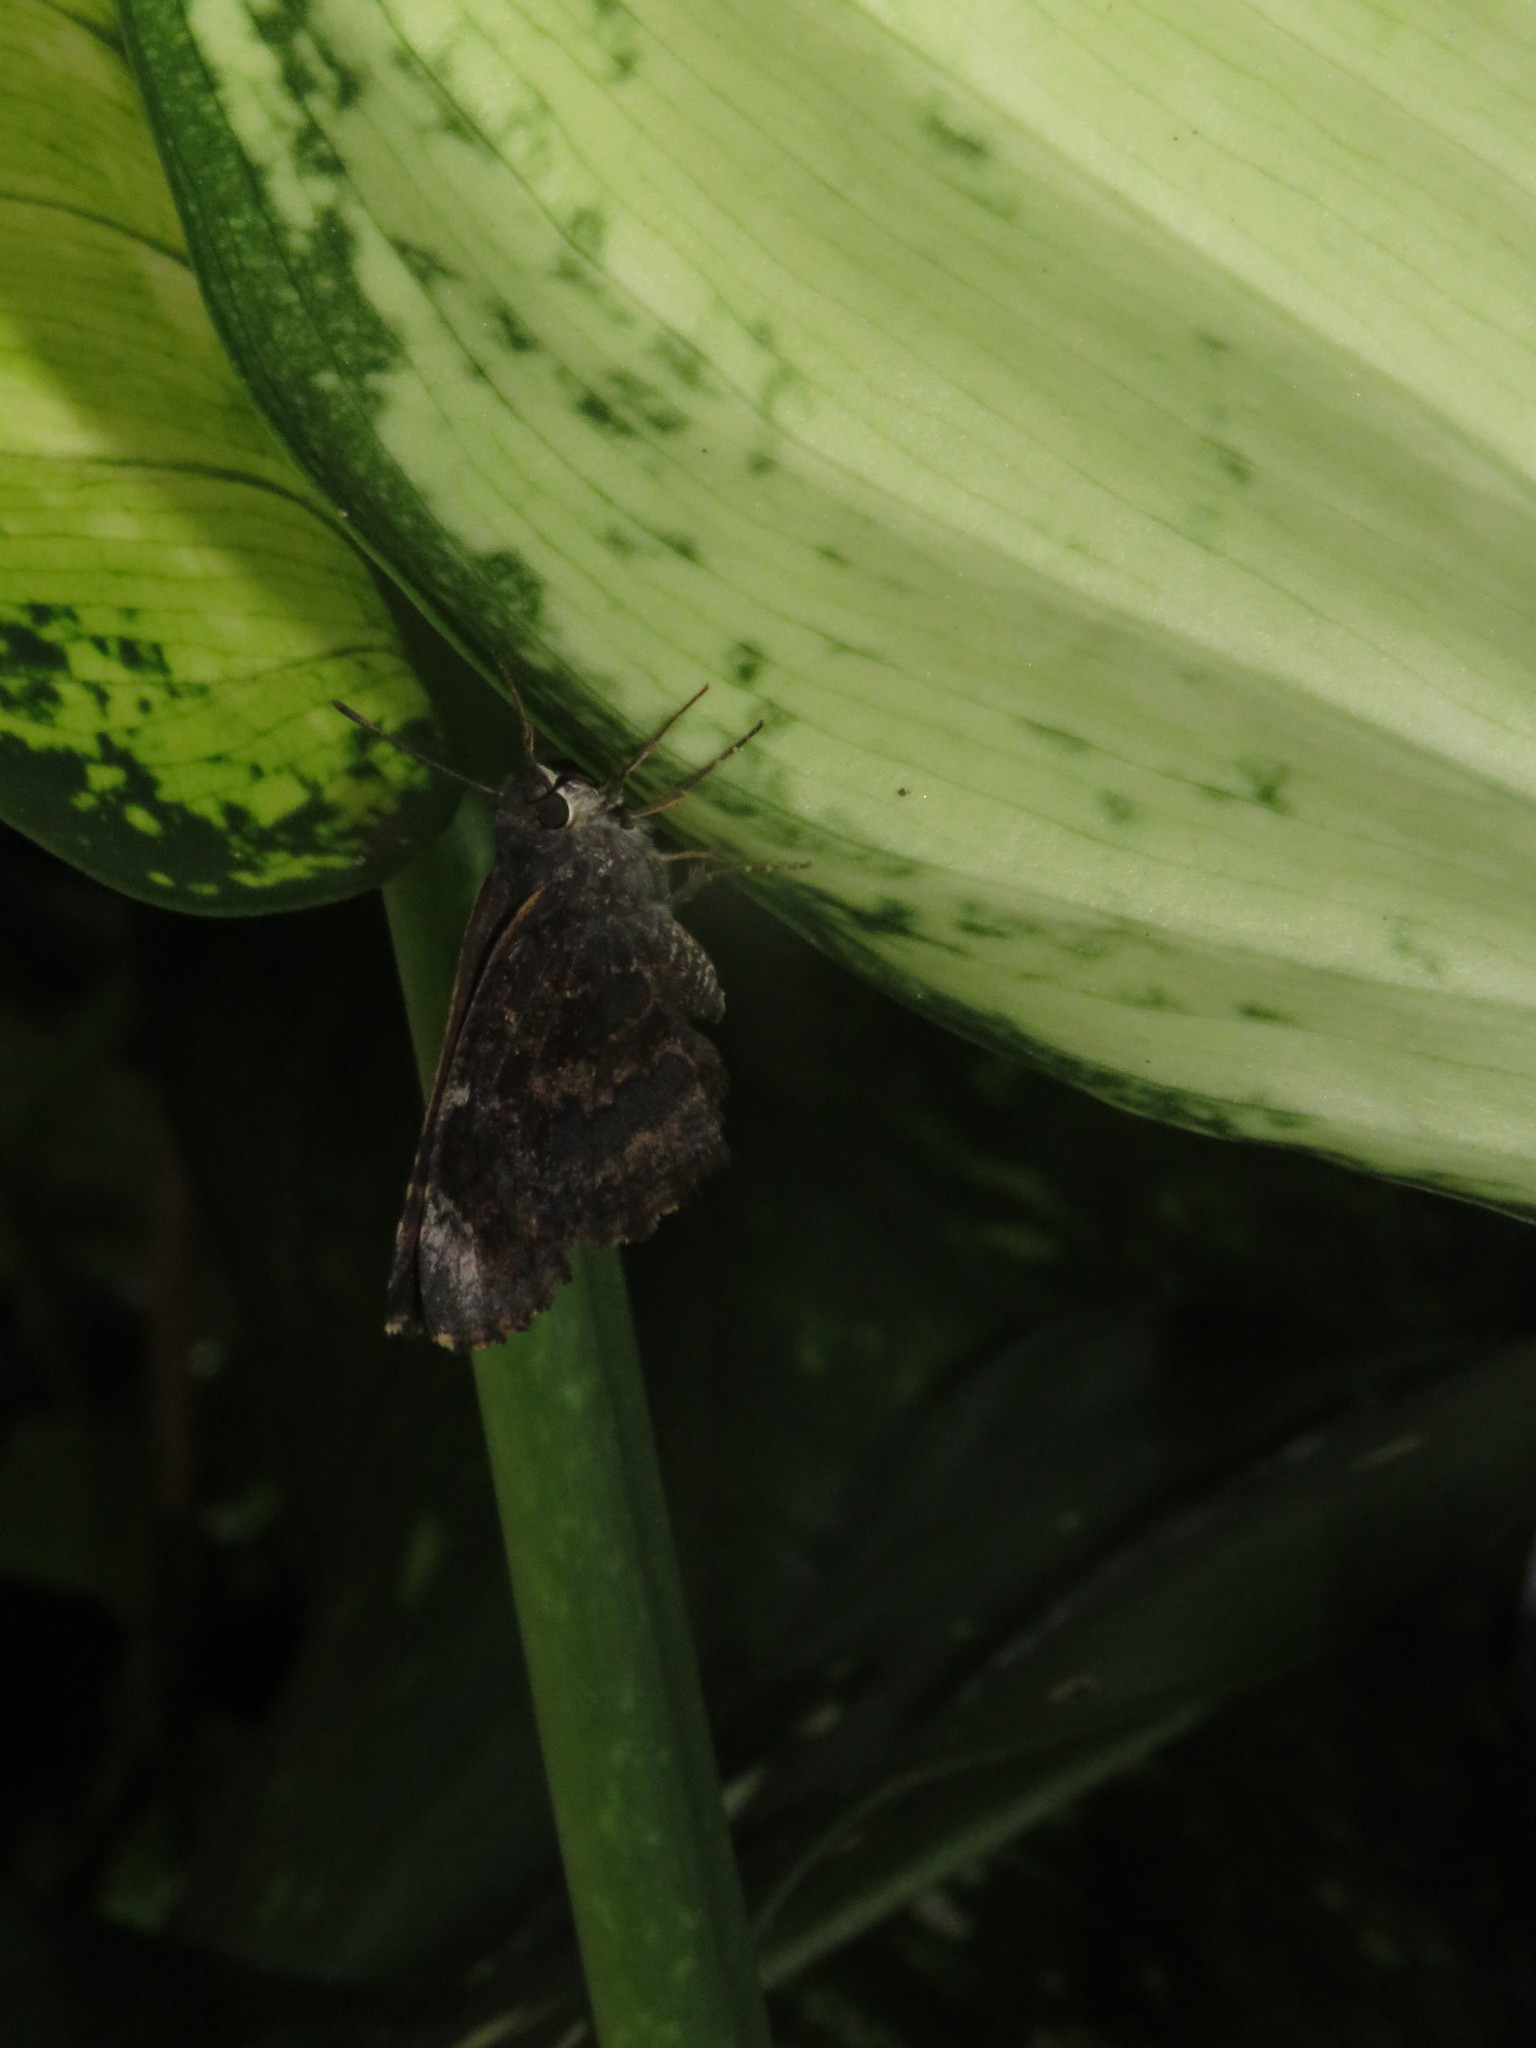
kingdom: Animalia
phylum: Arthropoda
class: Insecta
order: Lepidoptera
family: Hesperiidae
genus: Caicella
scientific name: Caicella calchas
